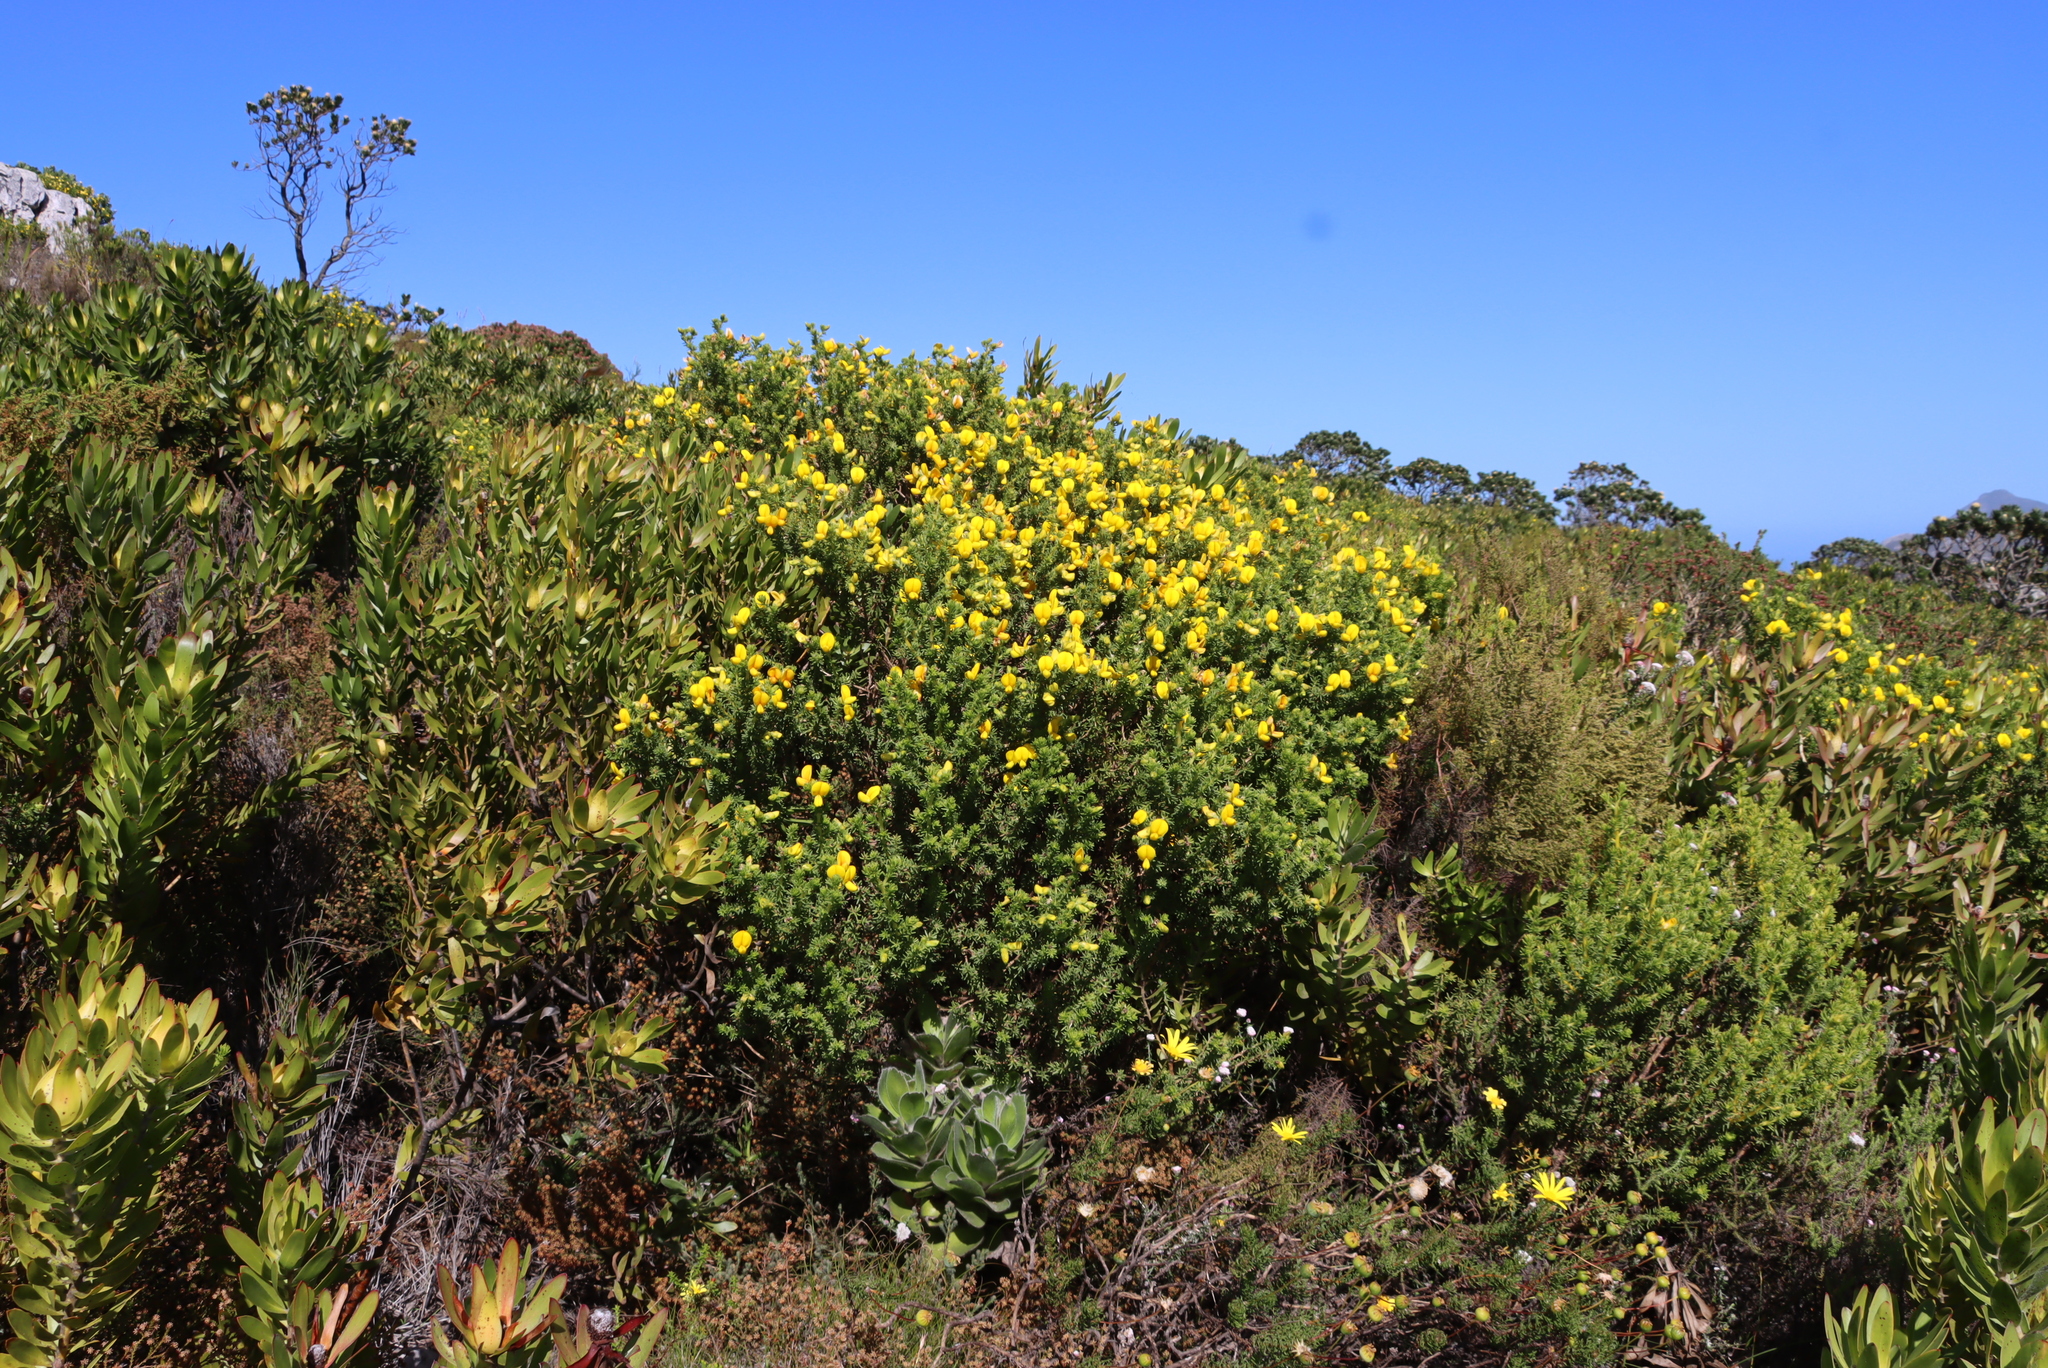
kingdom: Plantae
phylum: Tracheophyta
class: Magnoliopsida
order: Fabales
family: Fabaceae
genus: Aspalathus
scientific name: Aspalathus capensis
